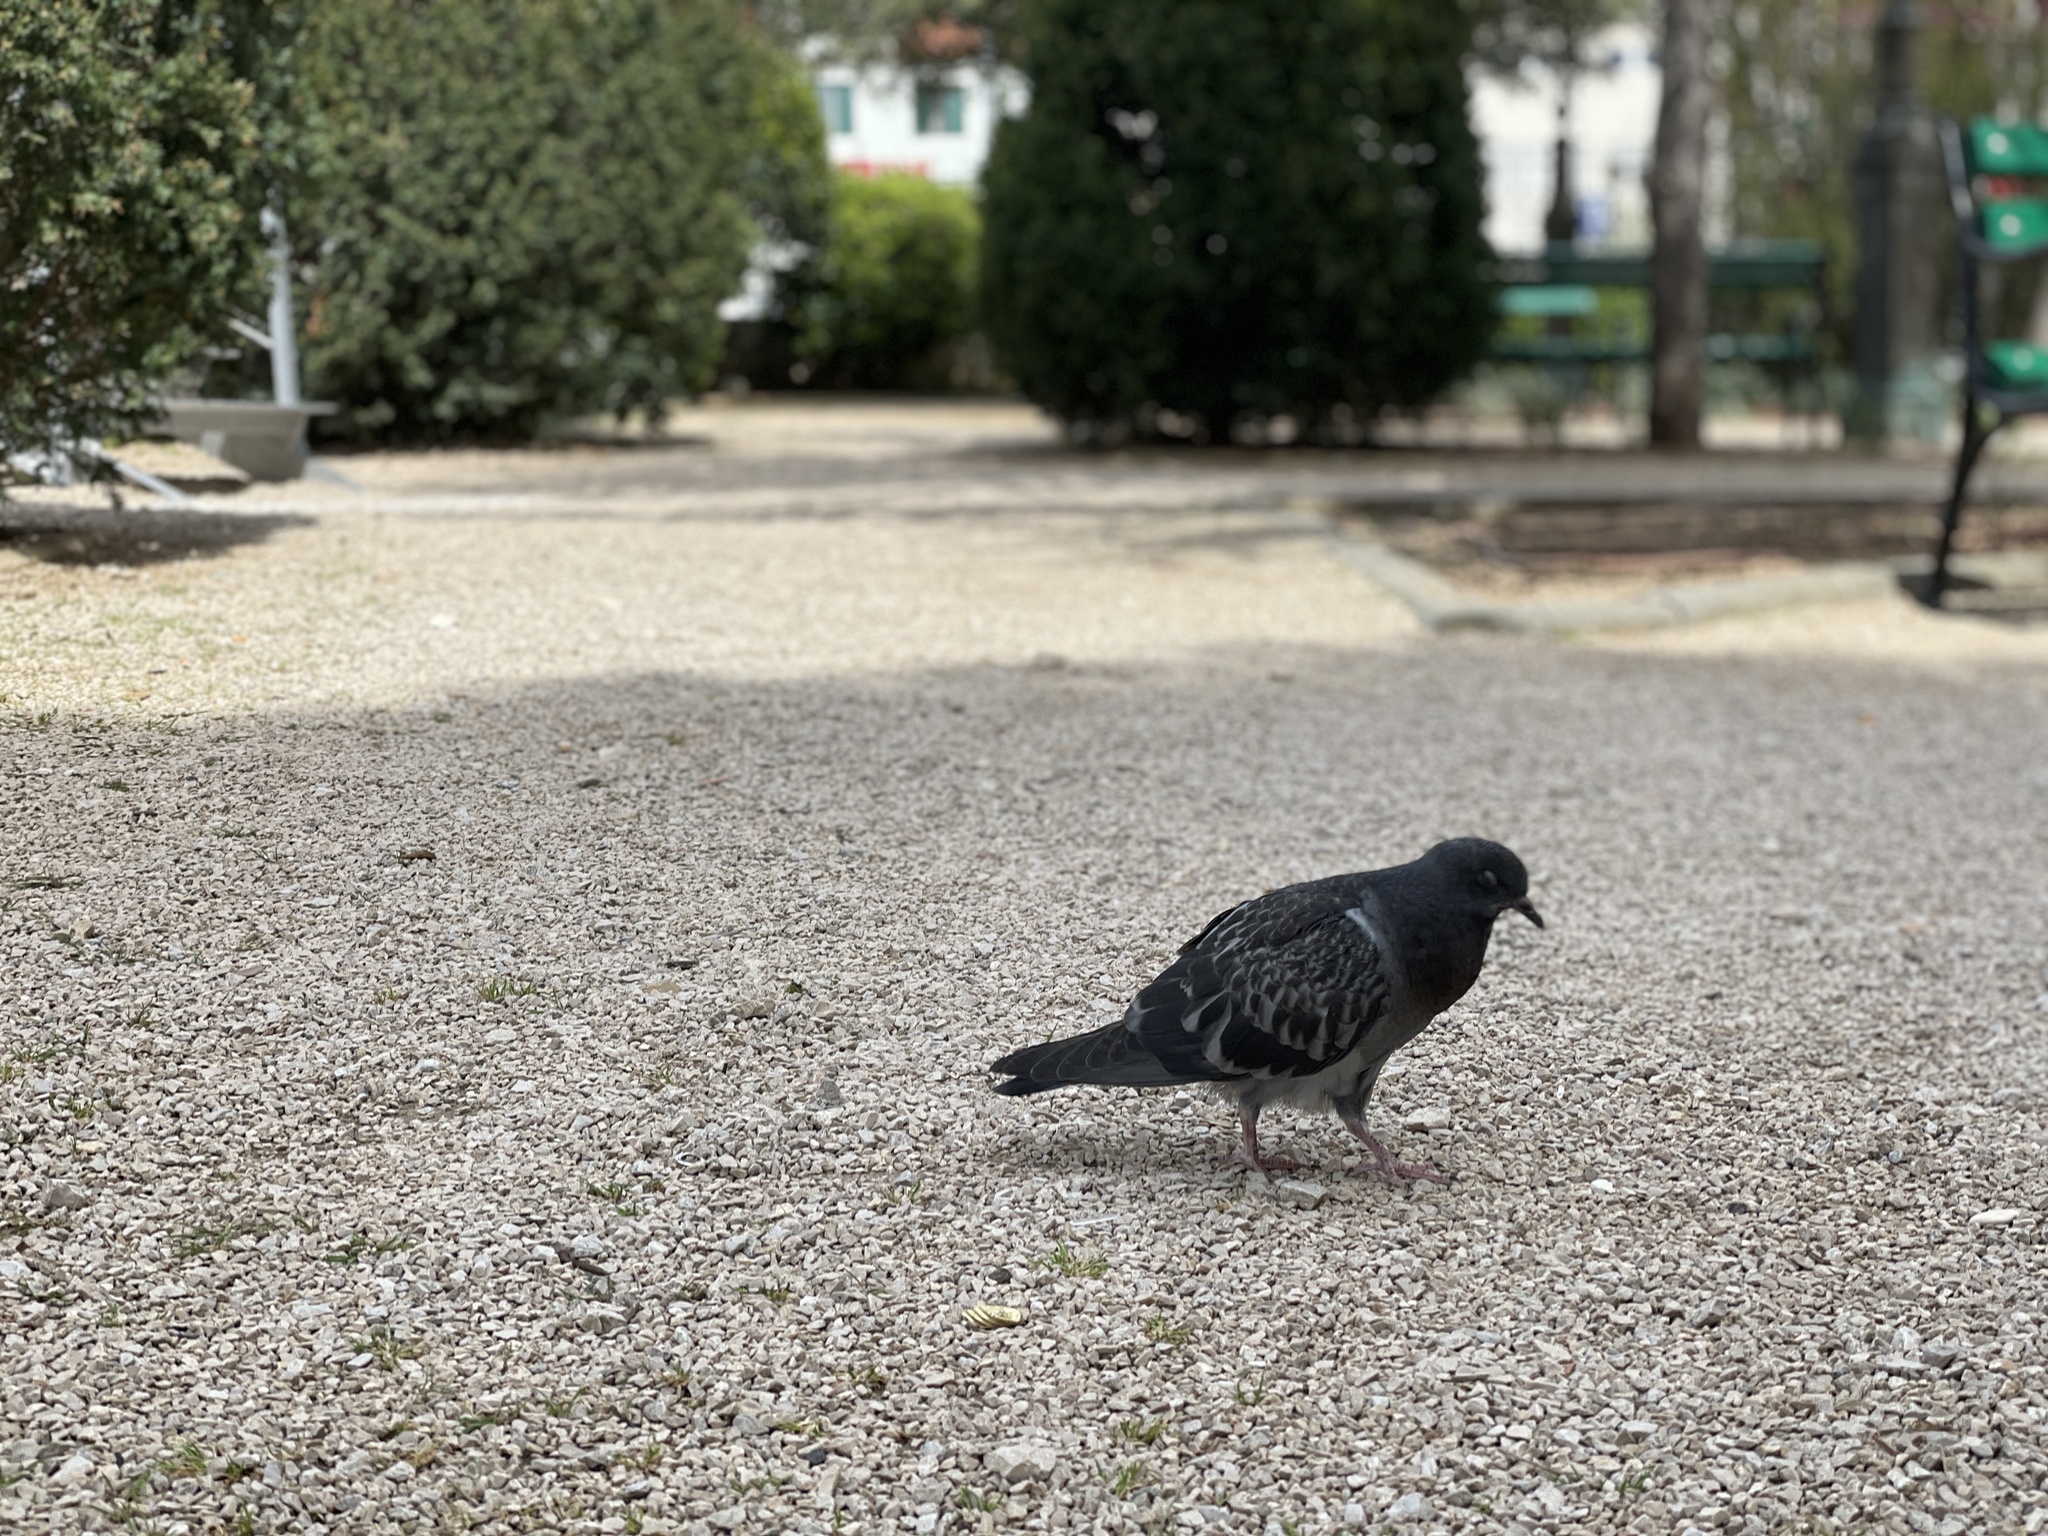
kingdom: Animalia
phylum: Chordata
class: Aves
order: Columbiformes
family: Columbidae
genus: Columba
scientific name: Columba livia
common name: Rock pigeon
